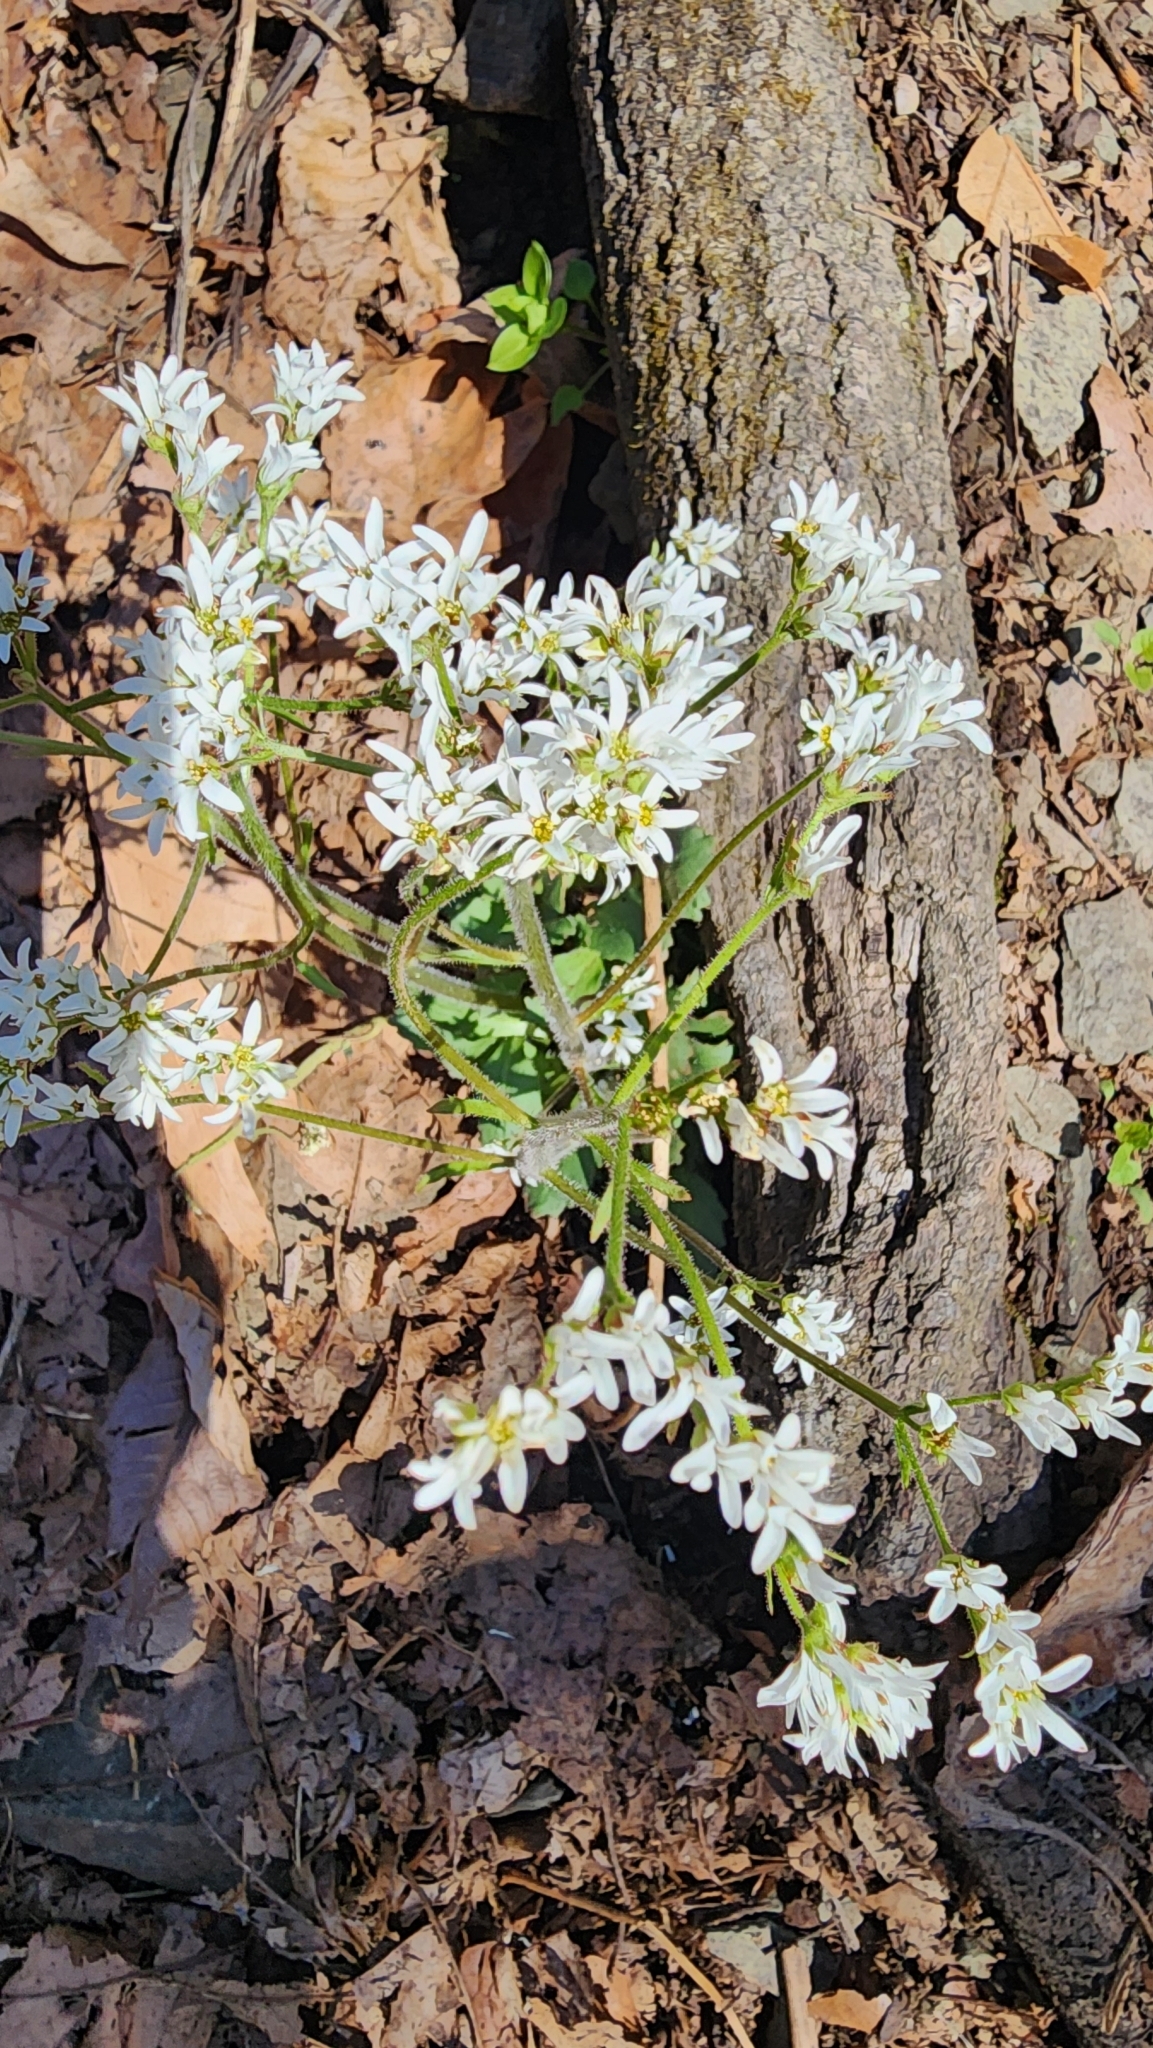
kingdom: Plantae
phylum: Tracheophyta
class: Magnoliopsida
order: Saxifragales
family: Saxifragaceae
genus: Micranthes
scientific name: Micranthes virginiensis
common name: Early saxifrage
